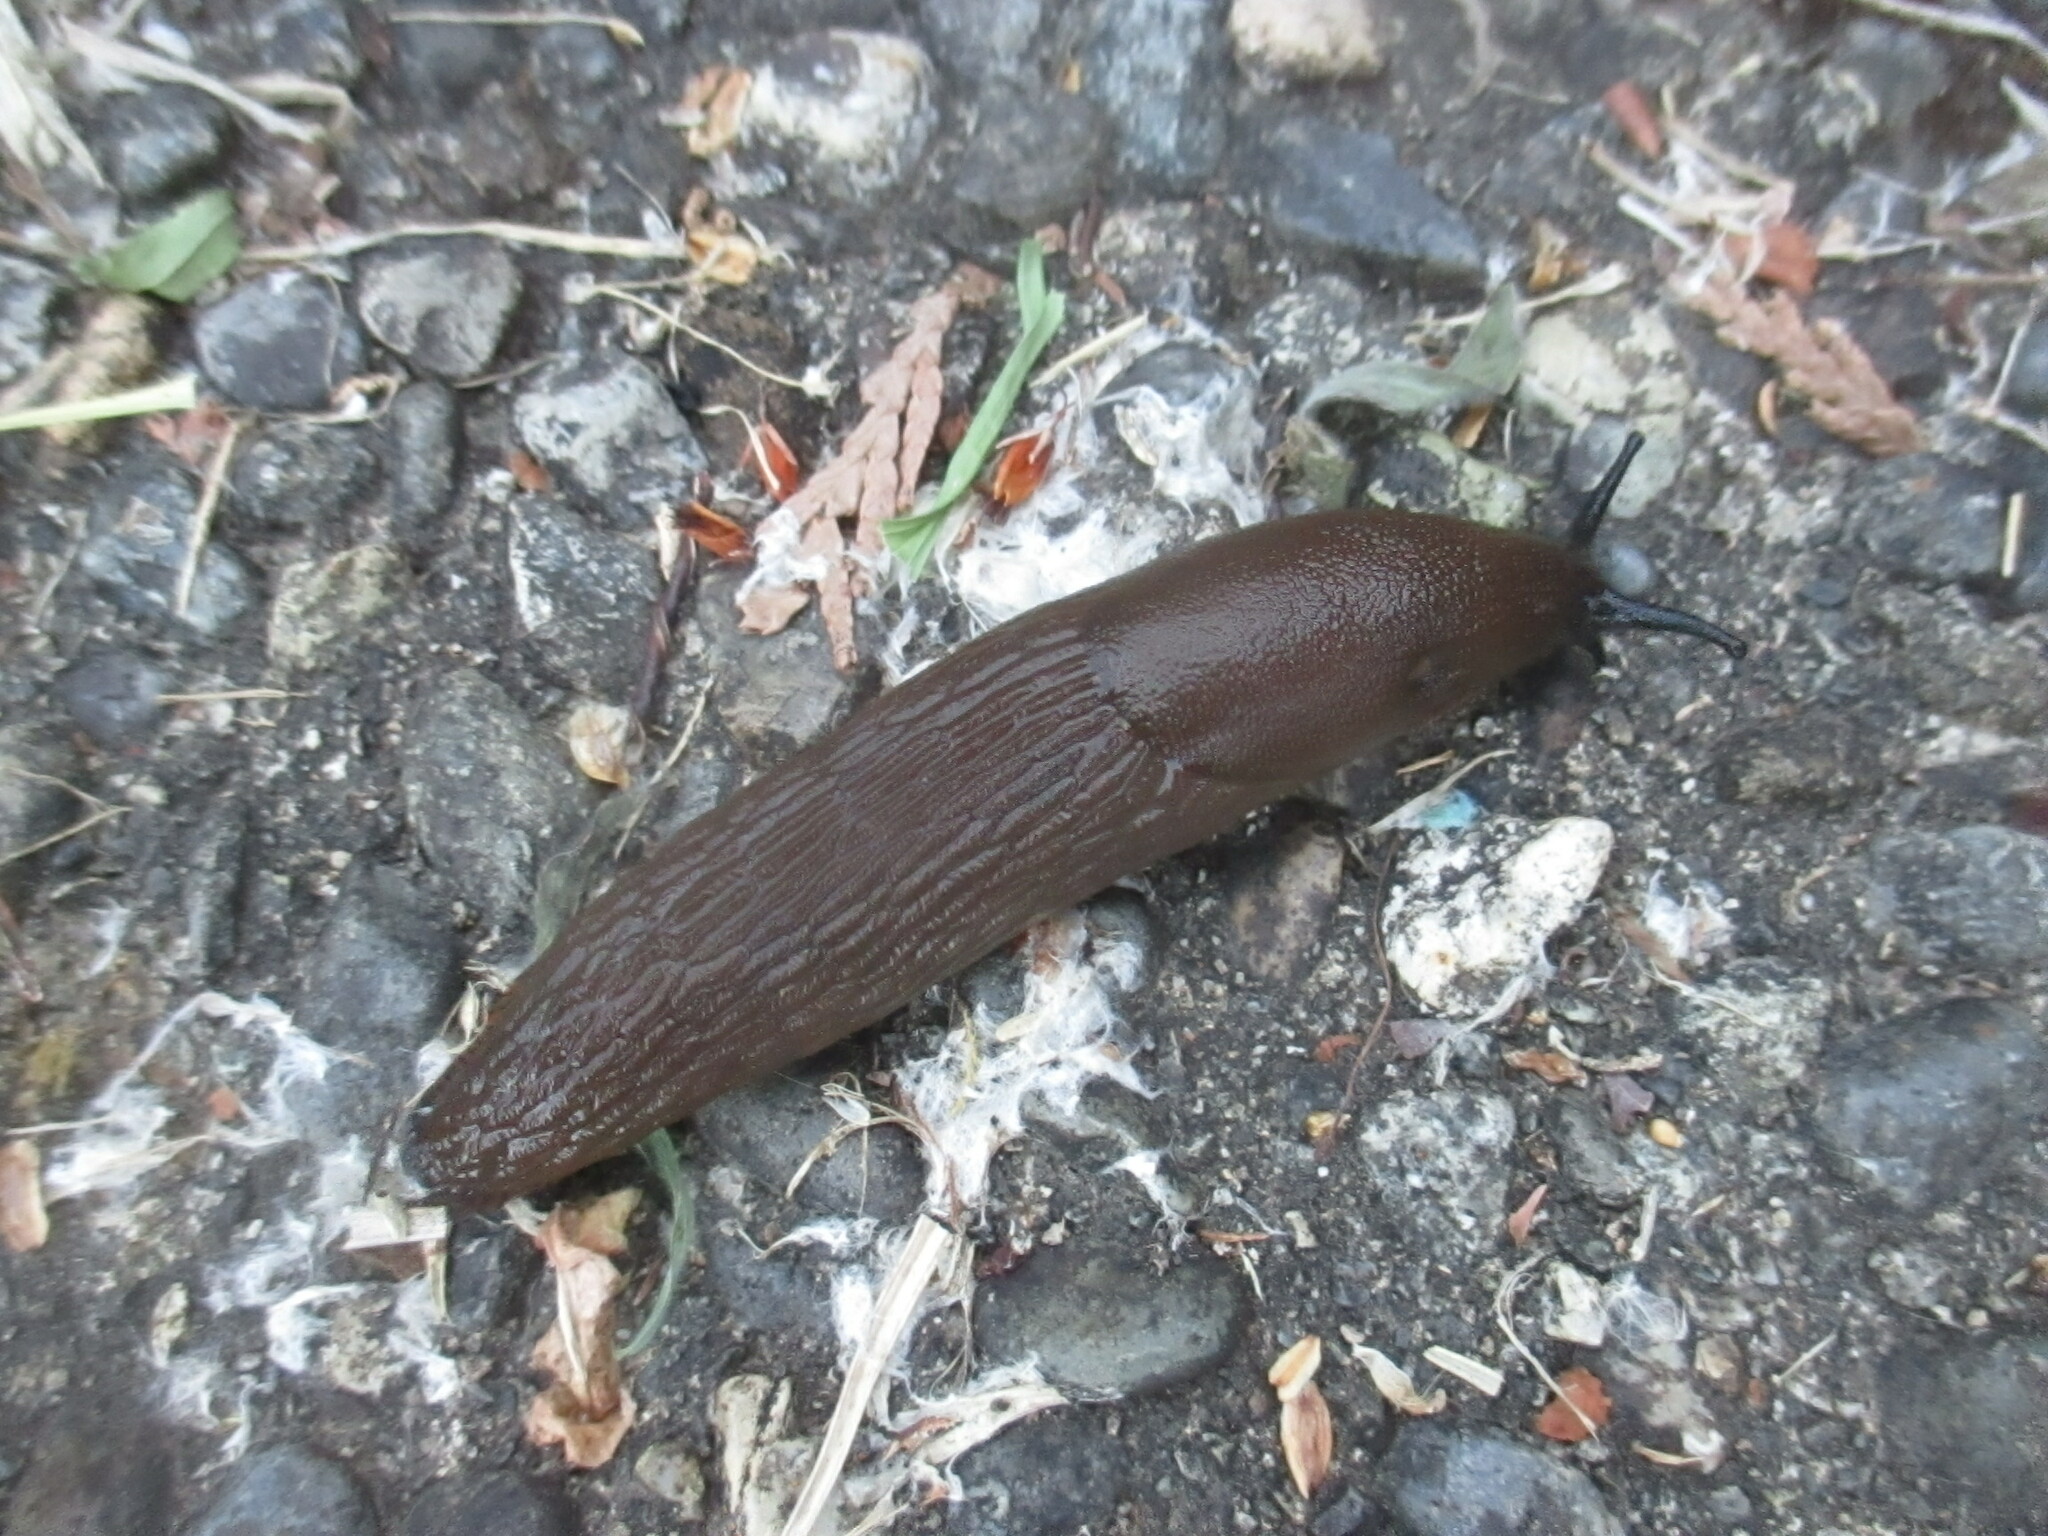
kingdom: Animalia
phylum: Mollusca
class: Gastropoda
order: Stylommatophora
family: Arionidae
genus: Arion
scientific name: Arion
